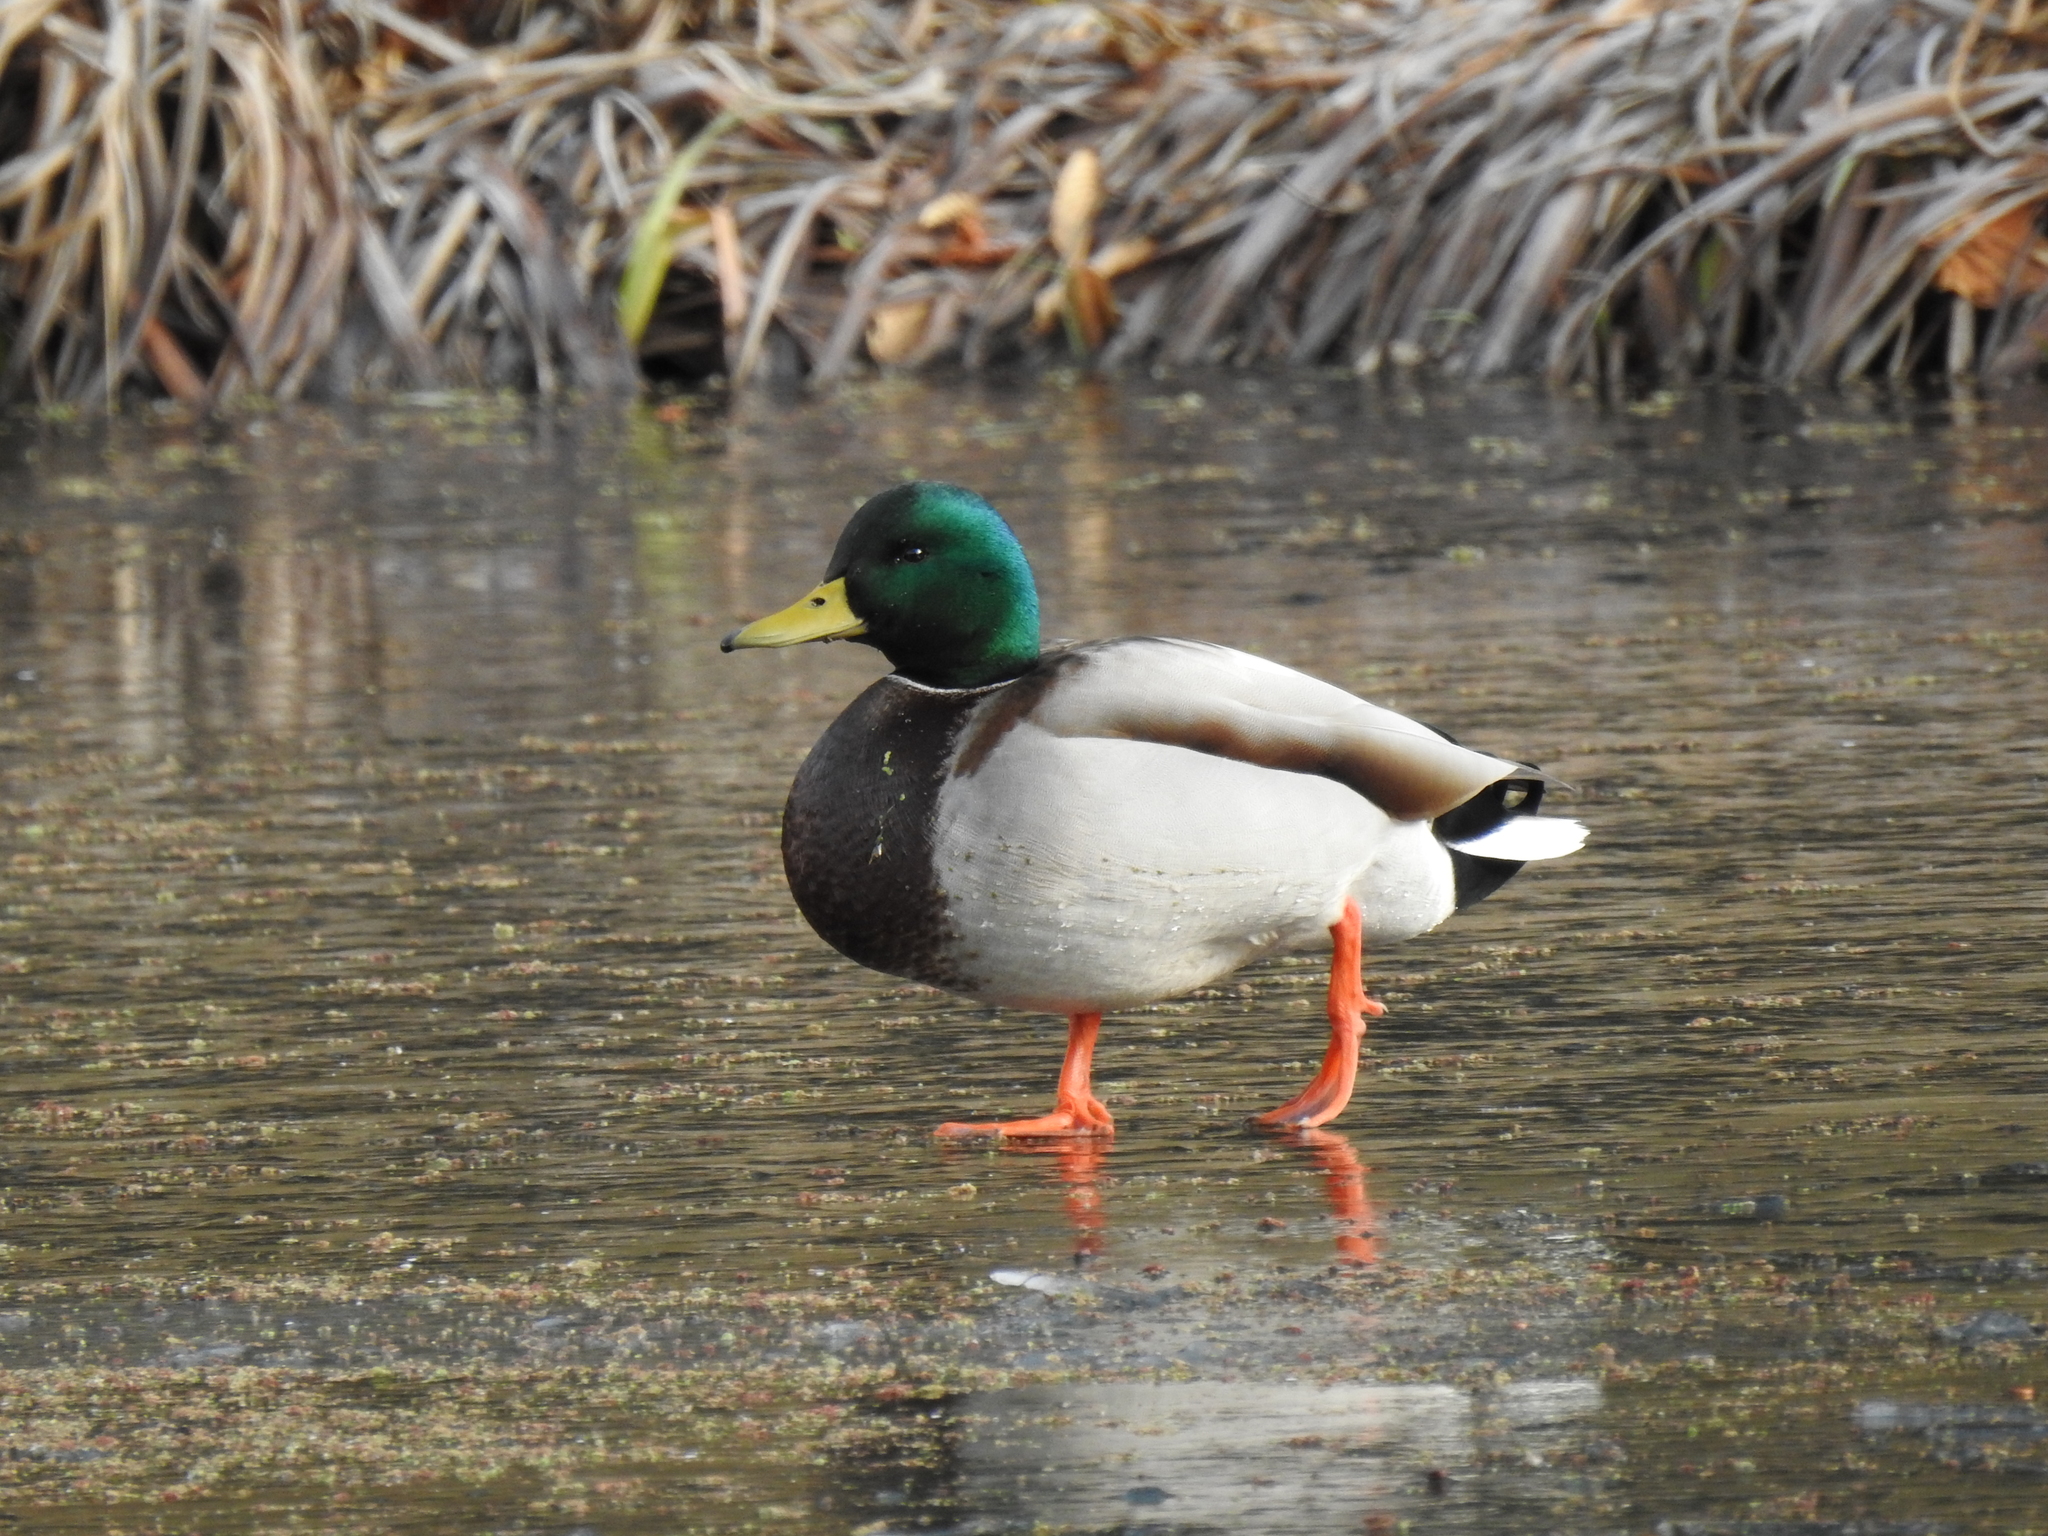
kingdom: Animalia
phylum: Chordata
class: Aves
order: Anseriformes
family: Anatidae
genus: Anas
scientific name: Anas platyrhynchos
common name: Mallard
